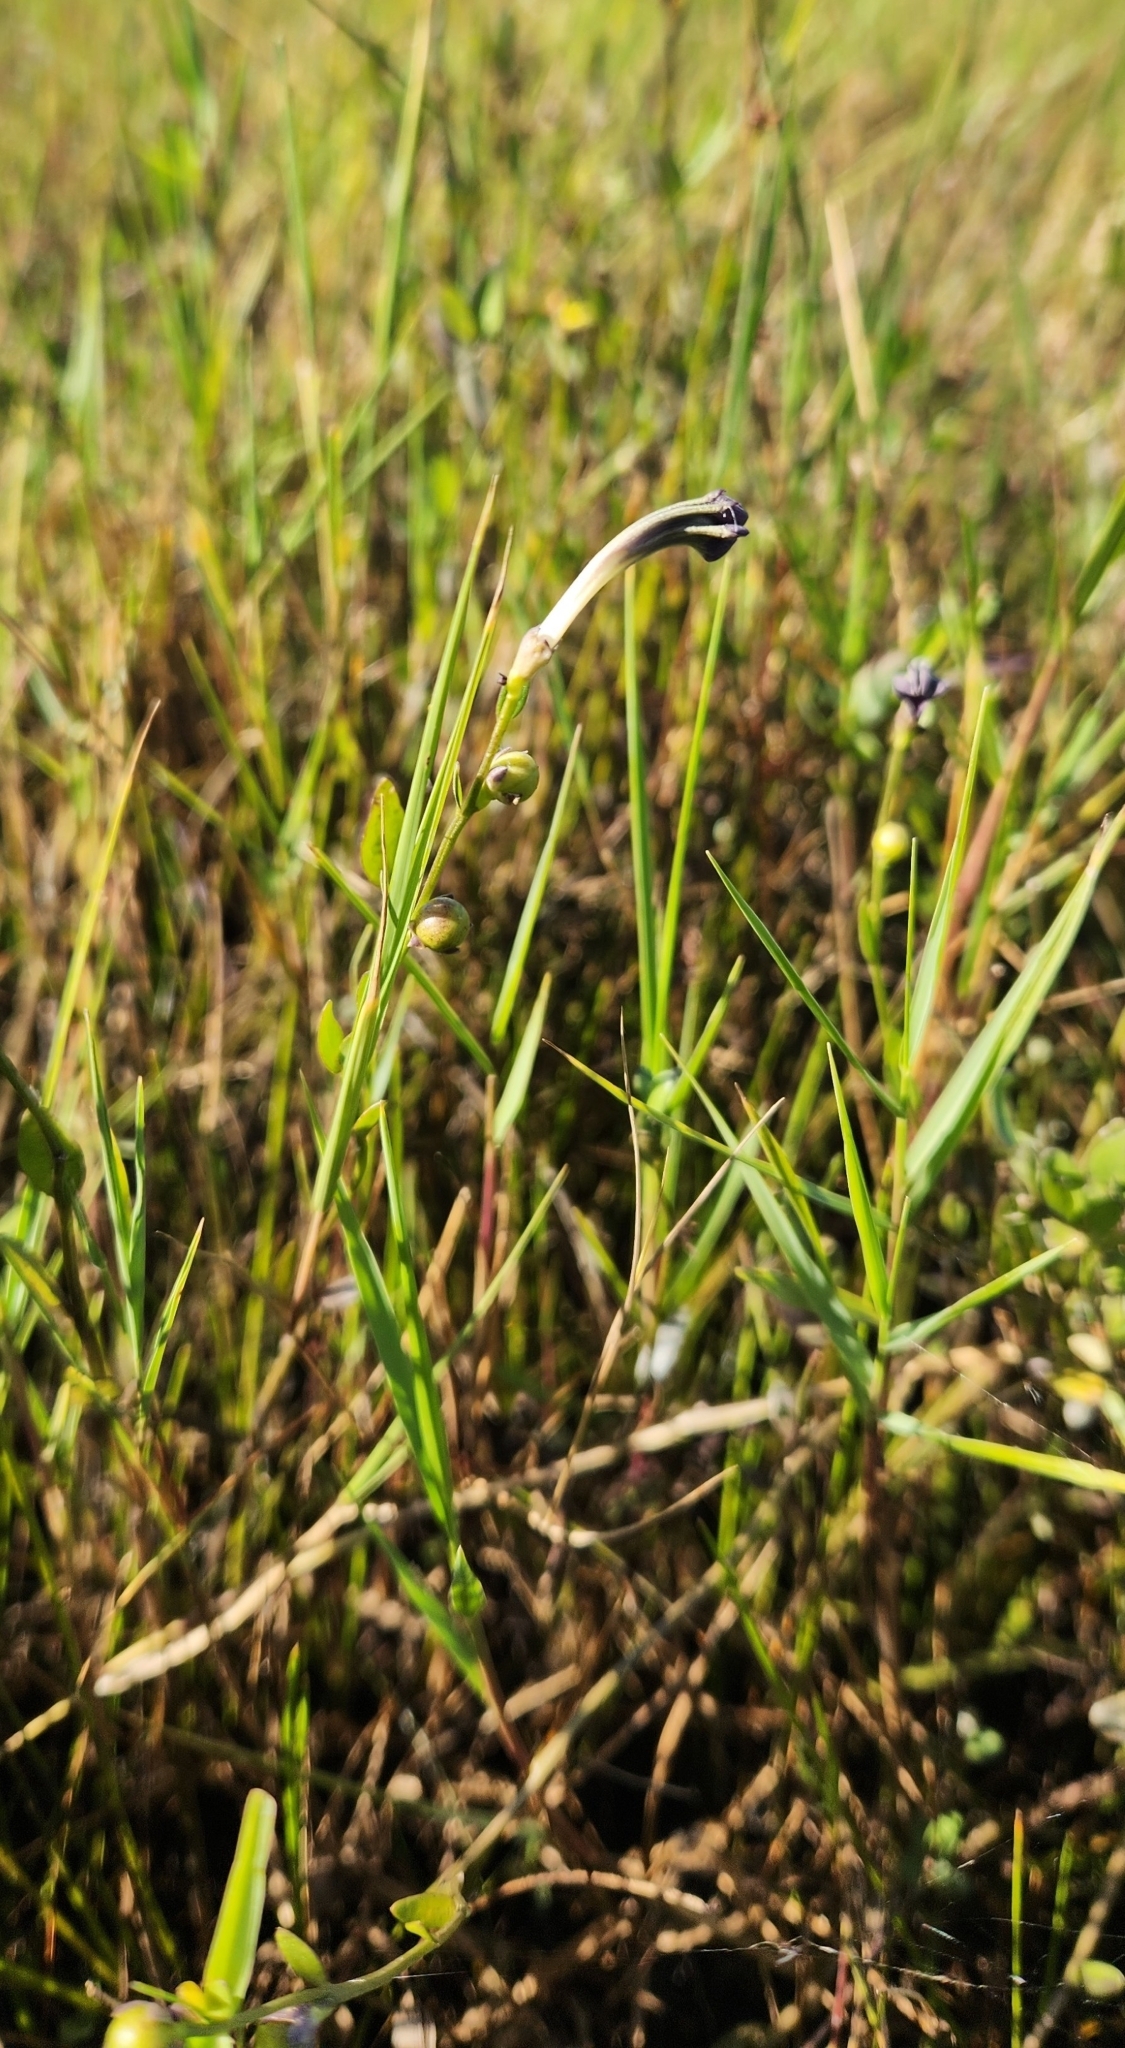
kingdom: Plantae
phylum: Tracheophyta
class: Magnoliopsida
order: Solanales
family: Solanaceae
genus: Schwenckia
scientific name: Schwenckia curviflora
